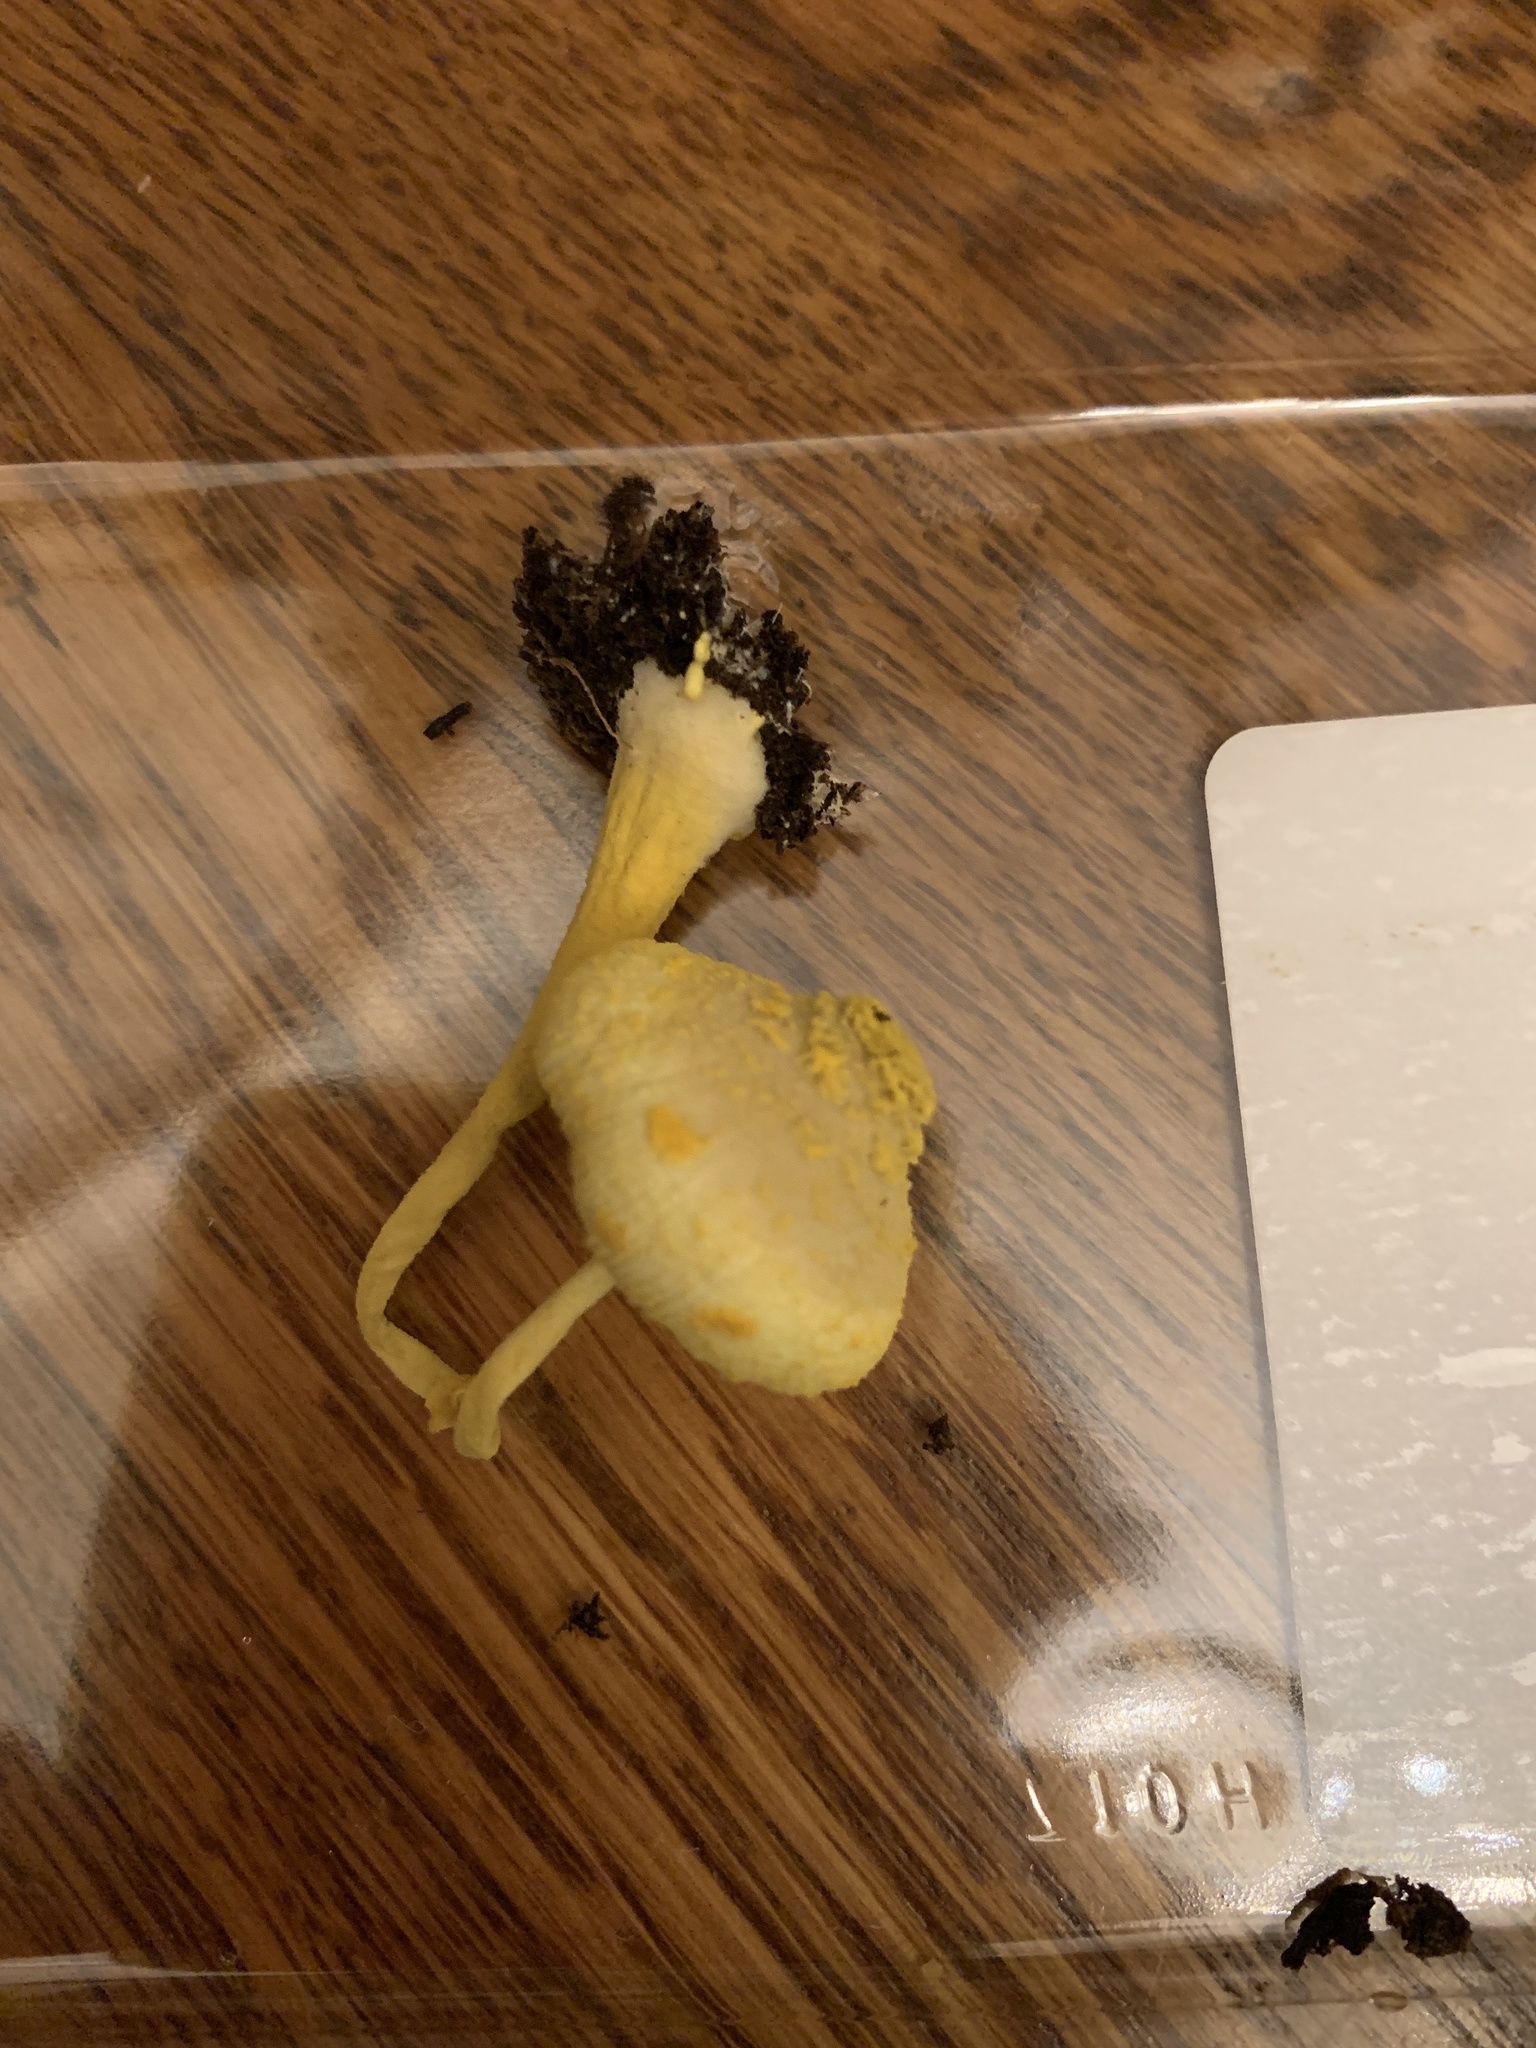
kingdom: Fungi
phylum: Basidiomycota
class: Agaricomycetes
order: Agaricales
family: Agaricaceae
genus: Leucocoprinus
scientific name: Leucocoprinus birnbaumii
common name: Plantpot dapperling
